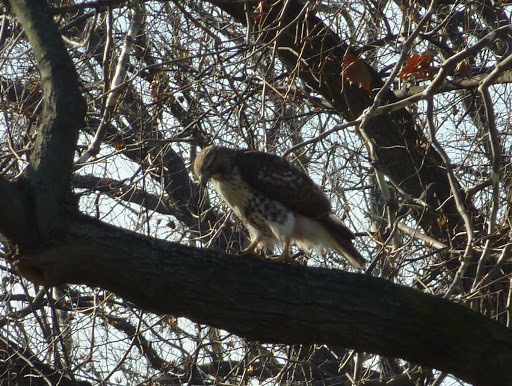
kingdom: Animalia
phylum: Chordata
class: Aves
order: Accipitriformes
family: Accipitridae
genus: Buteo
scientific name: Buteo jamaicensis
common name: Red-tailed hawk
